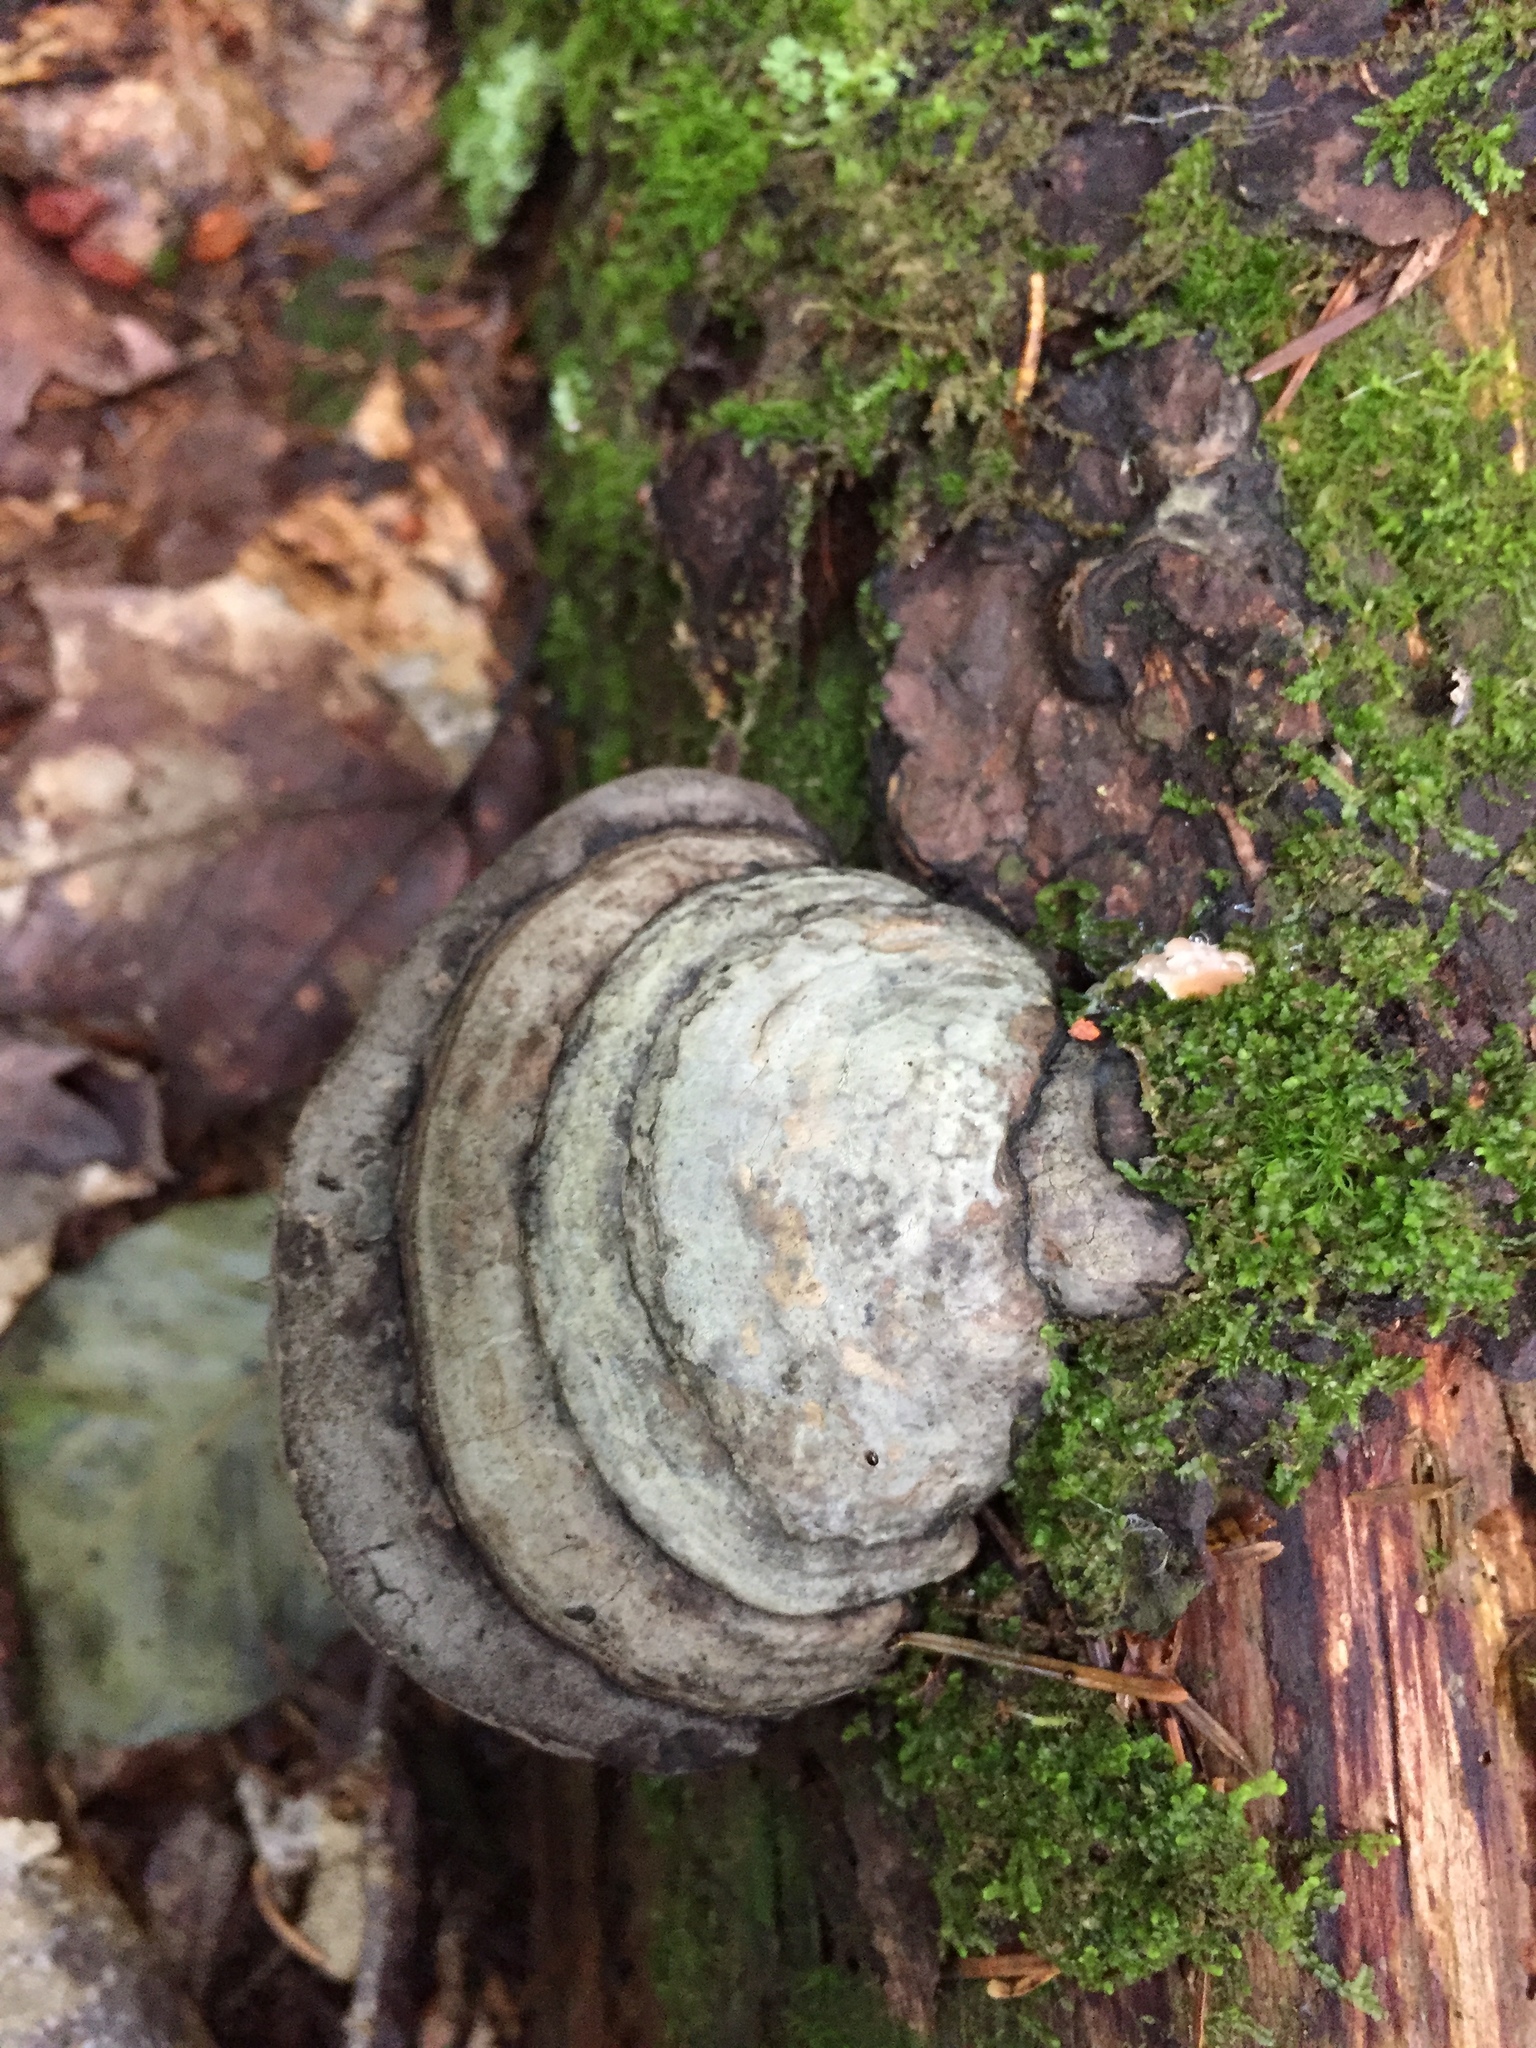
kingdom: Fungi
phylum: Basidiomycota
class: Agaricomycetes
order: Polyporales
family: Polyporaceae
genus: Fomes
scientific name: Fomes fomentarius
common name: Hoof fungus
